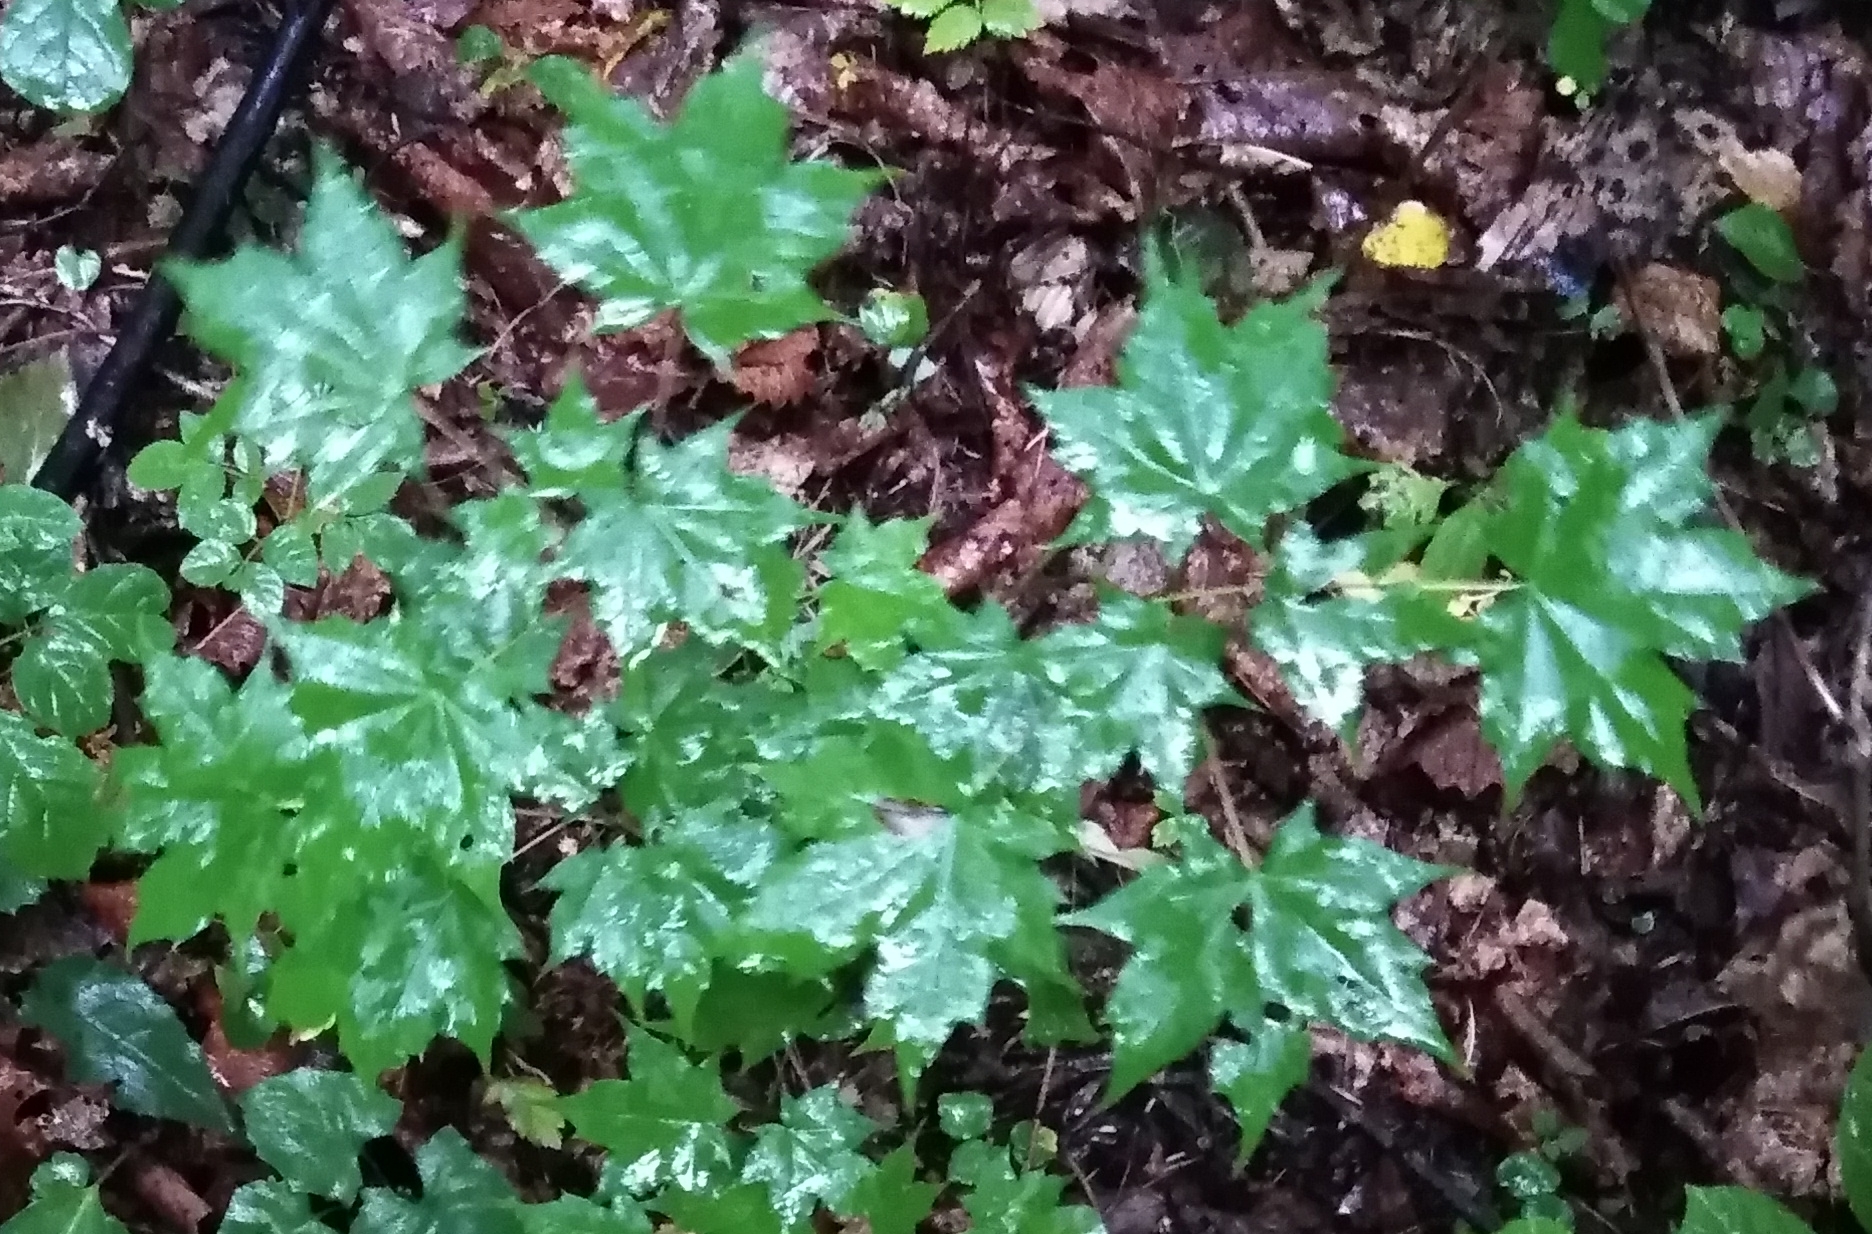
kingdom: Plantae
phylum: Tracheophyta
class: Magnoliopsida
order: Sapindales
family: Sapindaceae
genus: Acer
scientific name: Acer pictum
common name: The painted maple
